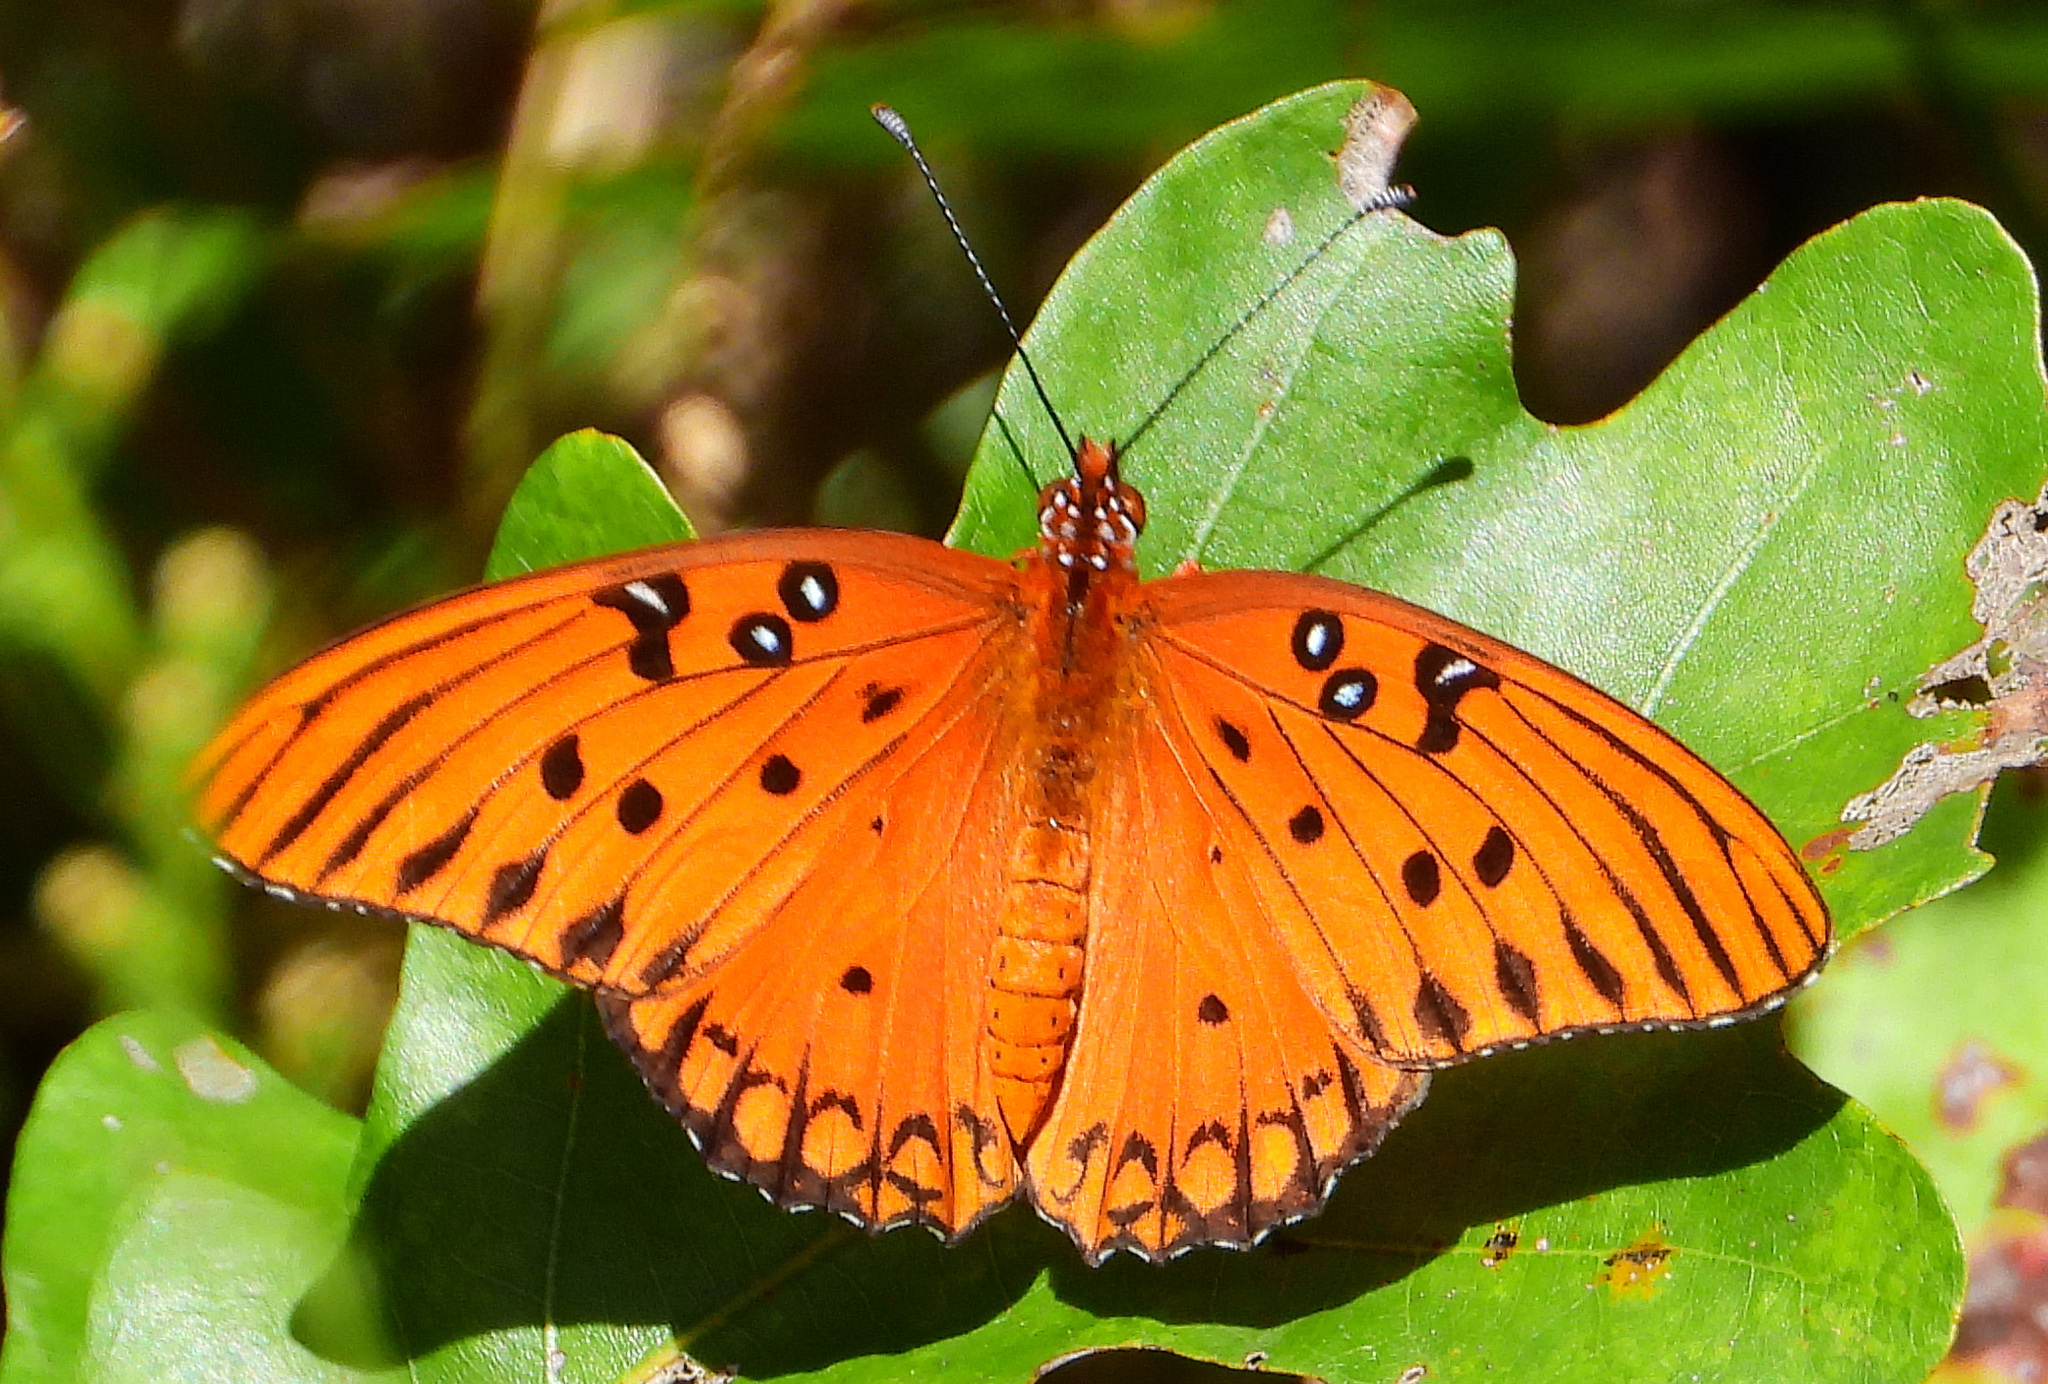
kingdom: Animalia
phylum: Arthropoda
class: Insecta
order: Lepidoptera
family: Nymphalidae
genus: Dione
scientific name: Dione vanillae
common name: Gulf fritillary
